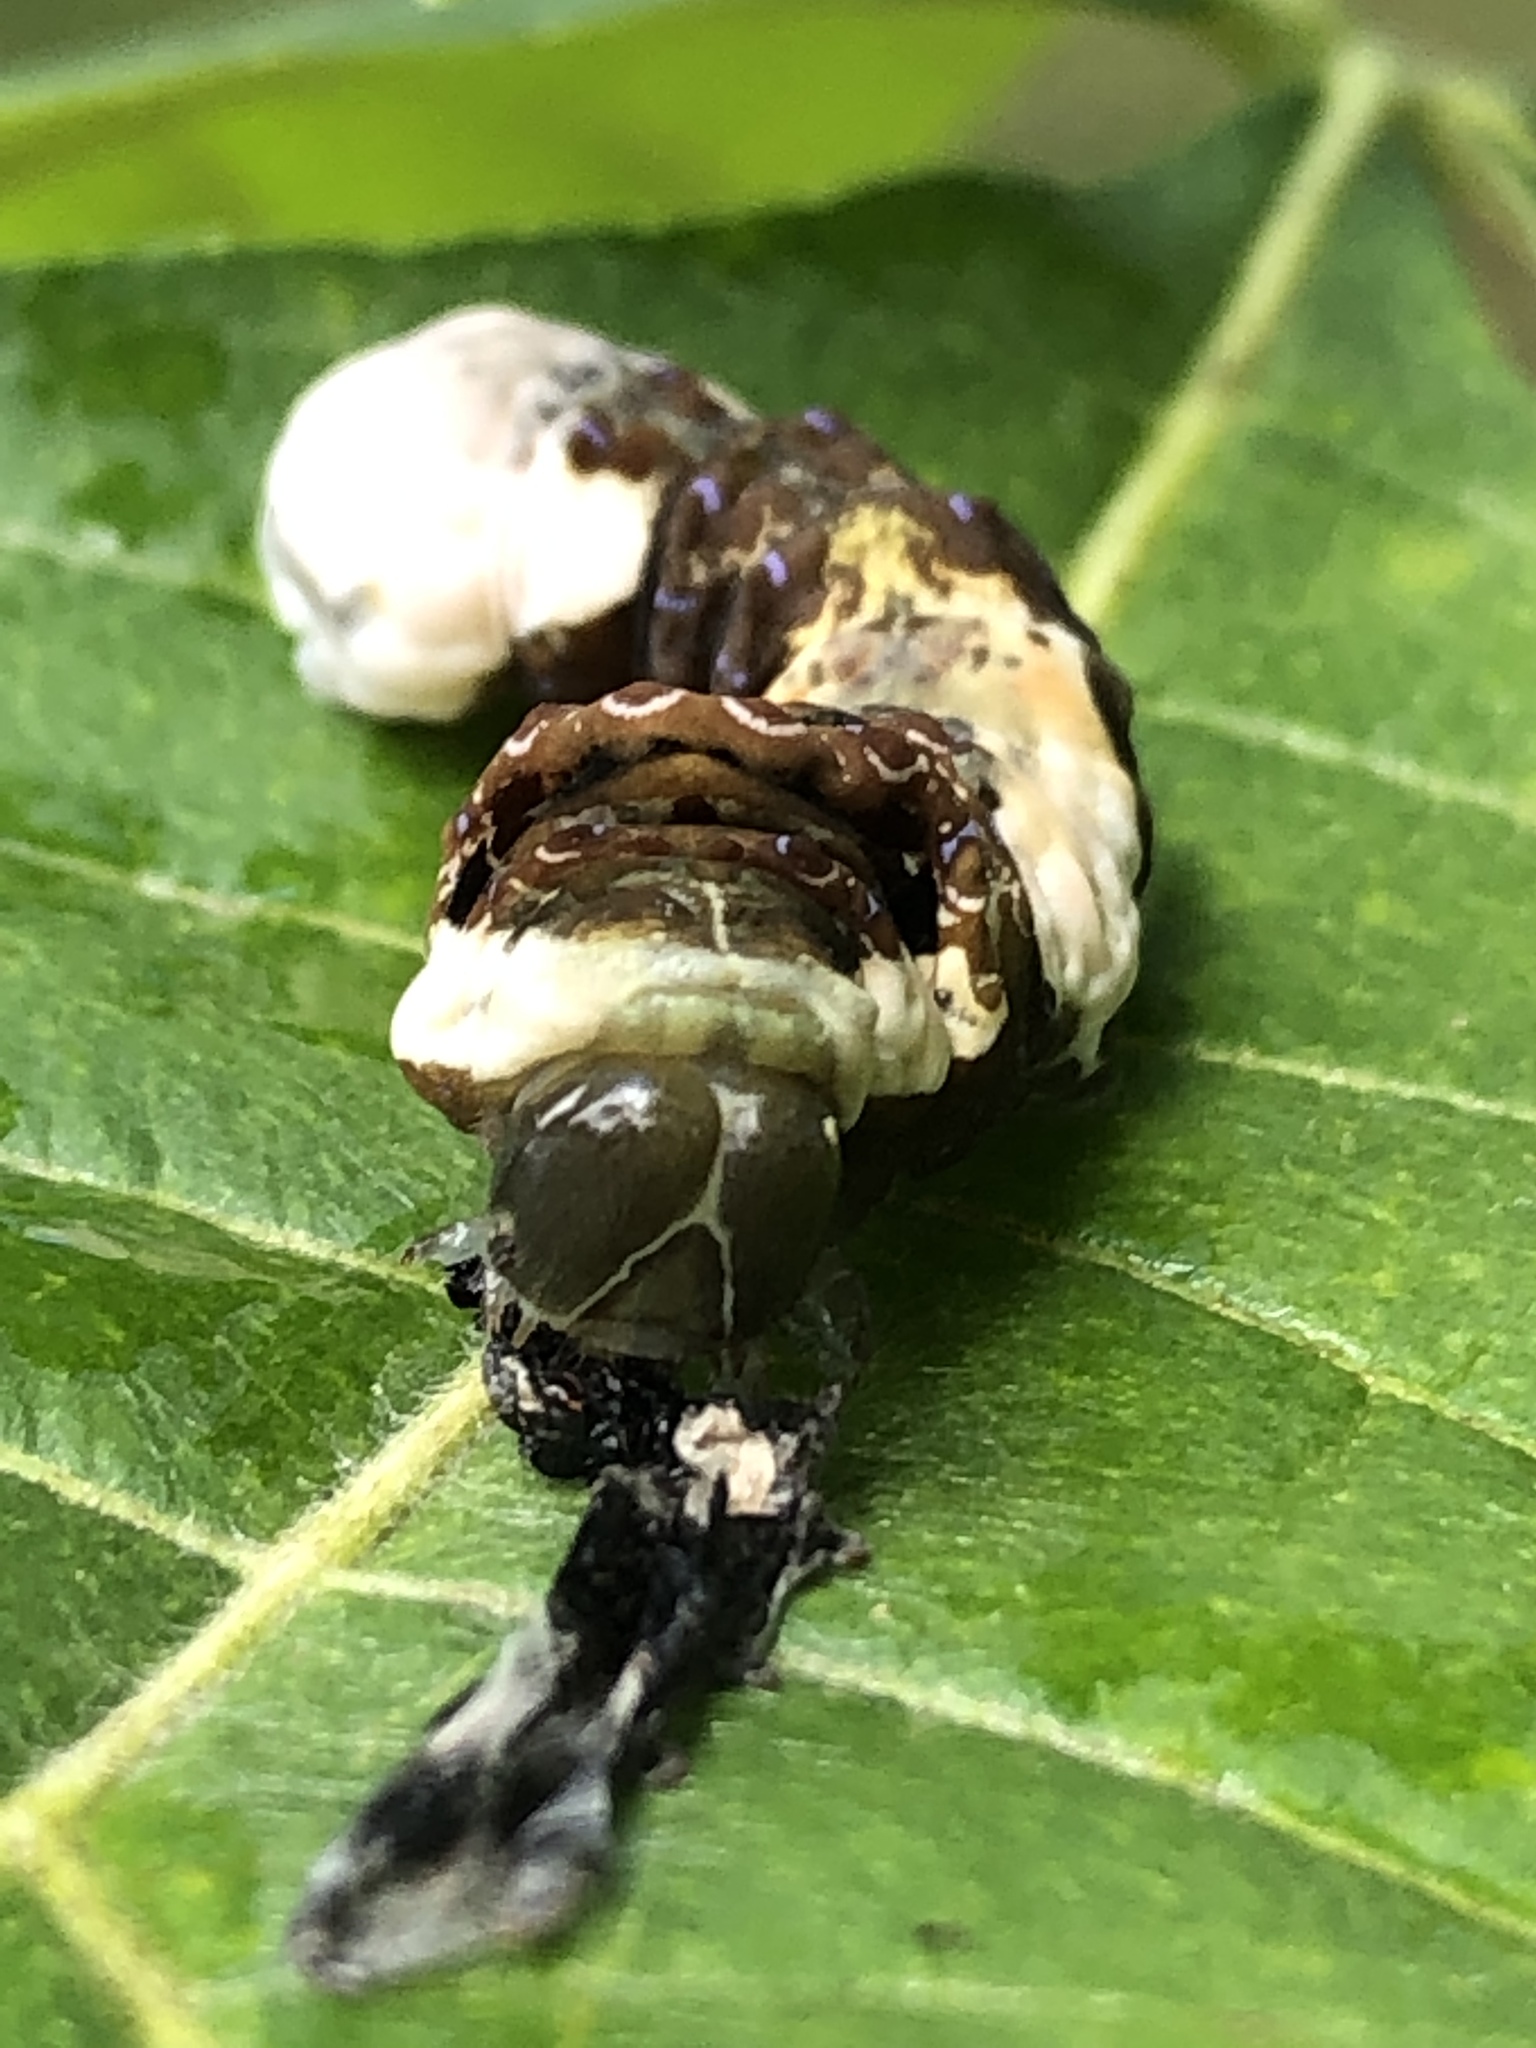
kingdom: Animalia
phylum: Arthropoda
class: Insecta
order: Lepidoptera
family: Papilionidae
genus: Papilio
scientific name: Papilio cresphontes
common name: Giant swallowtail
